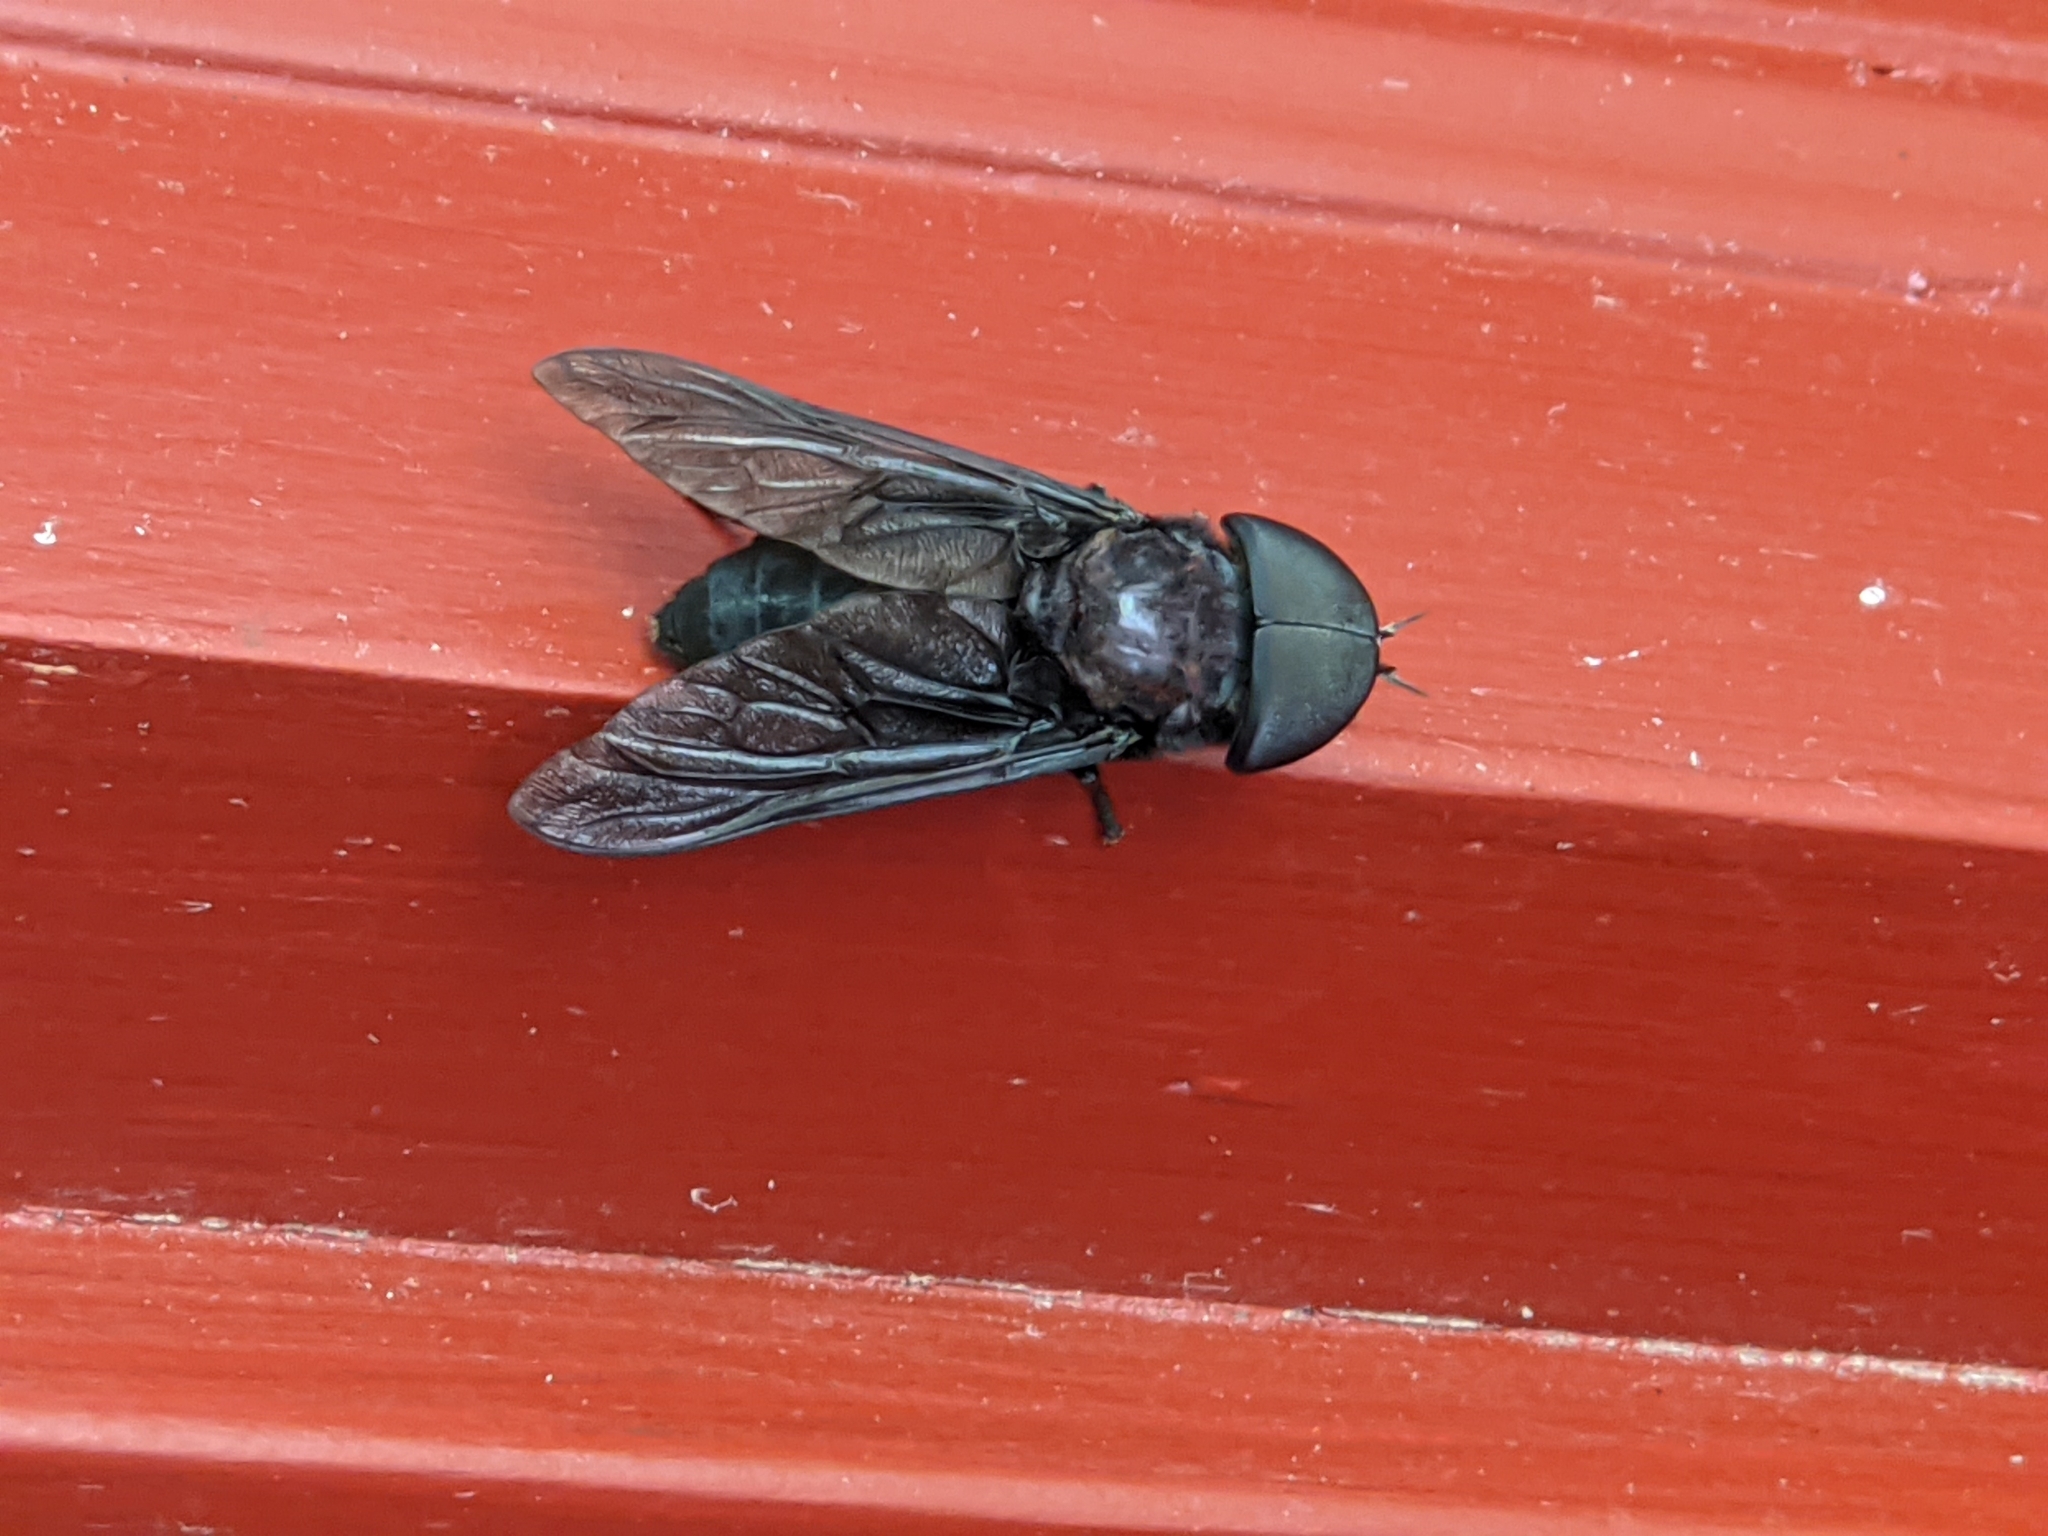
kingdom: Animalia
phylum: Arthropoda
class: Insecta
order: Diptera
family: Tabanidae
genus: Tabanus
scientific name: Tabanus atratus
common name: Black horse fly
